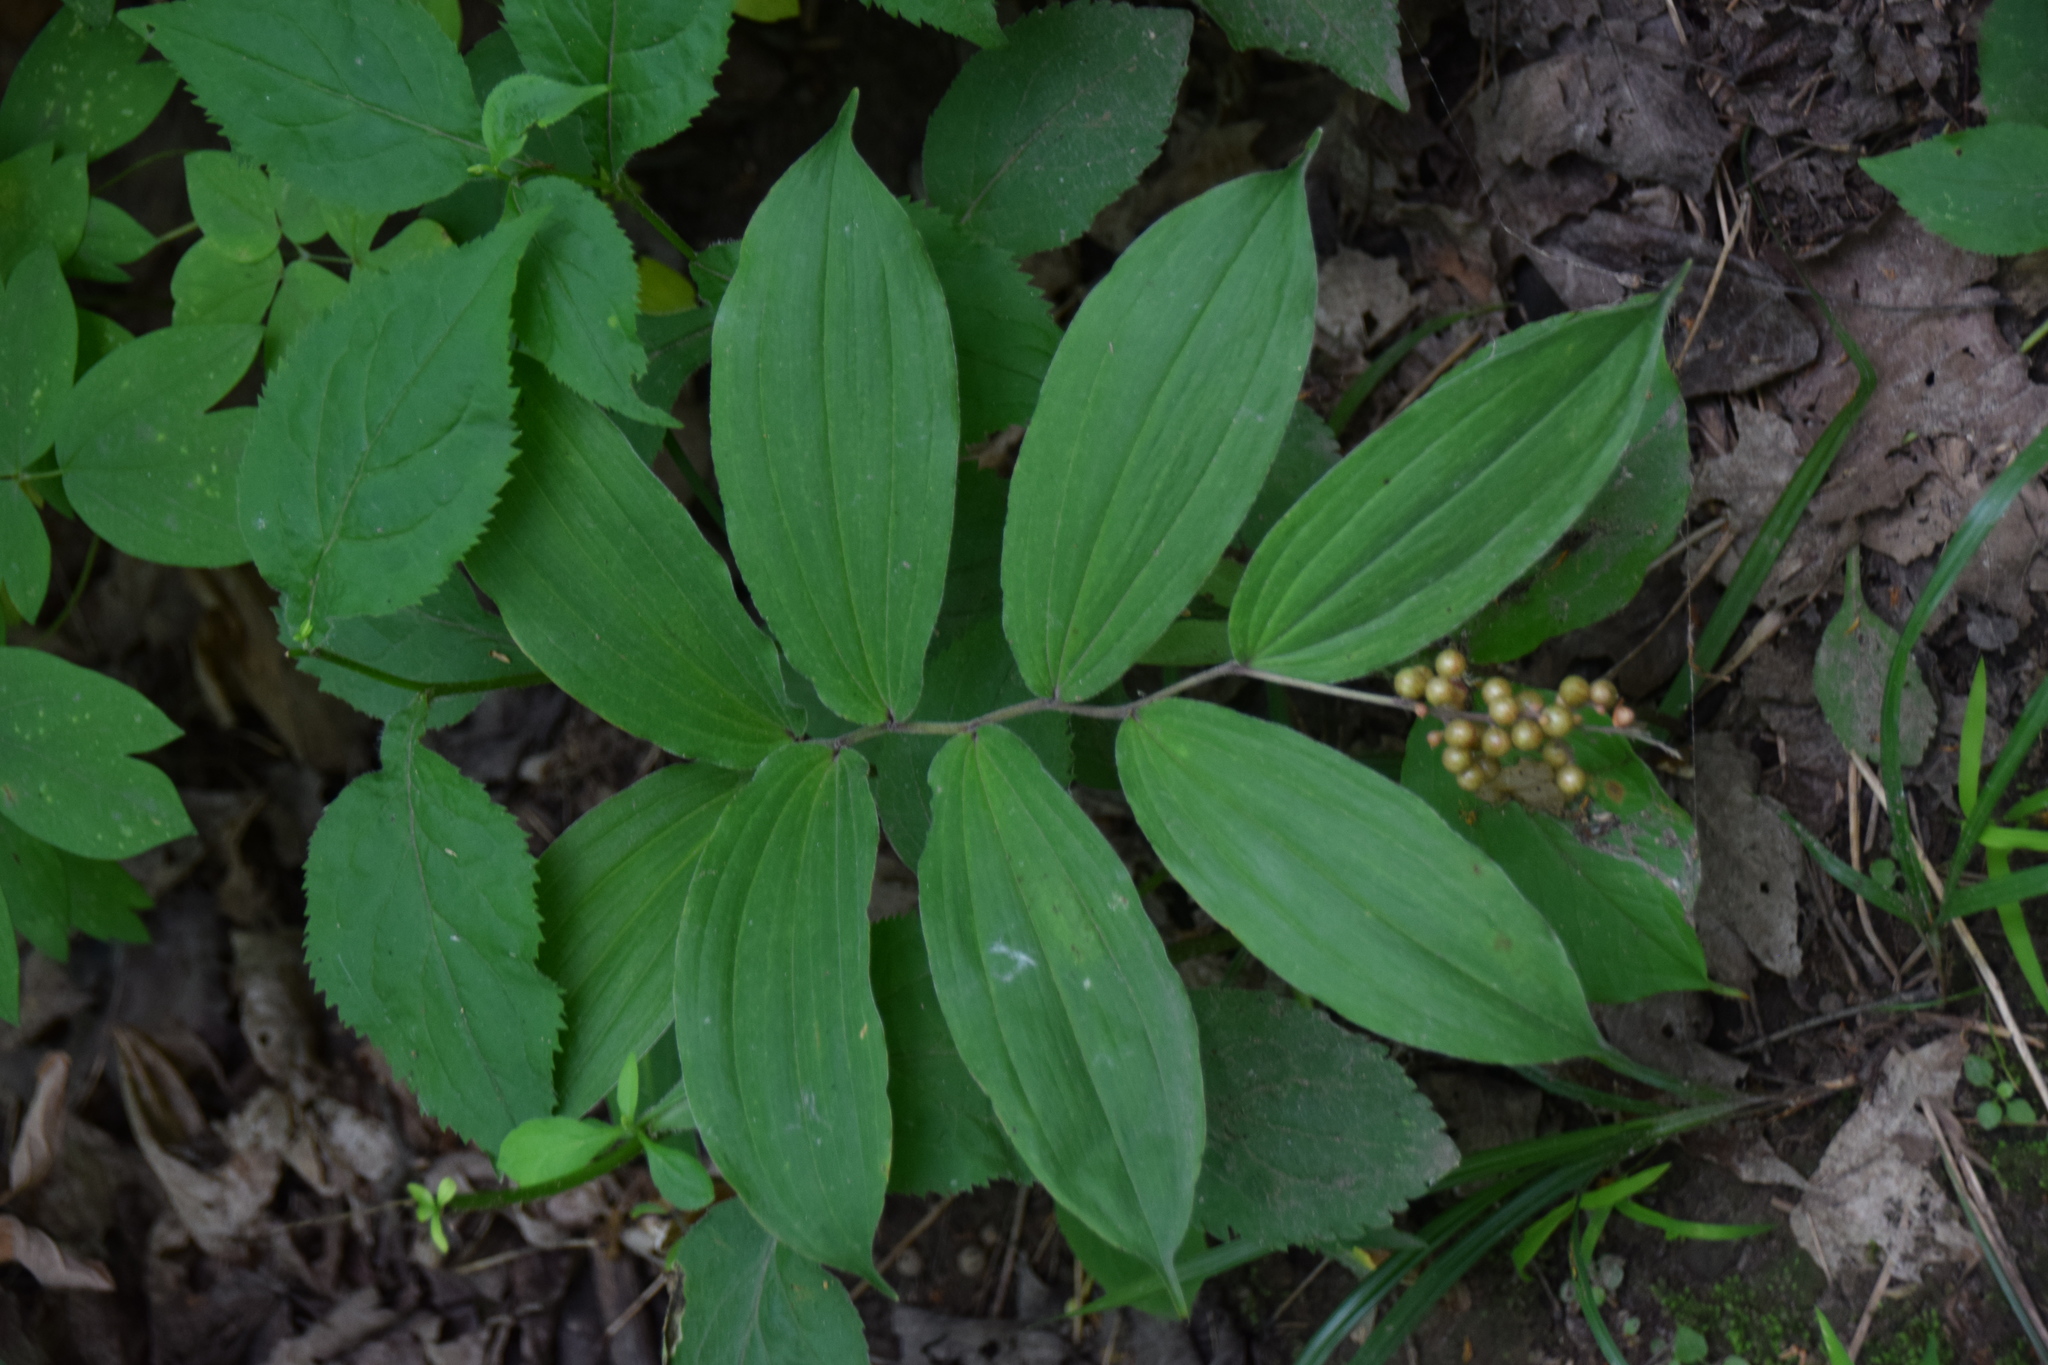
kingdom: Plantae
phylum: Tracheophyta
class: Liliopsida
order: Asparagales
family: Asparagaceae
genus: Maianthemum
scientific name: Maianthemum racemosum
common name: False spikenard
